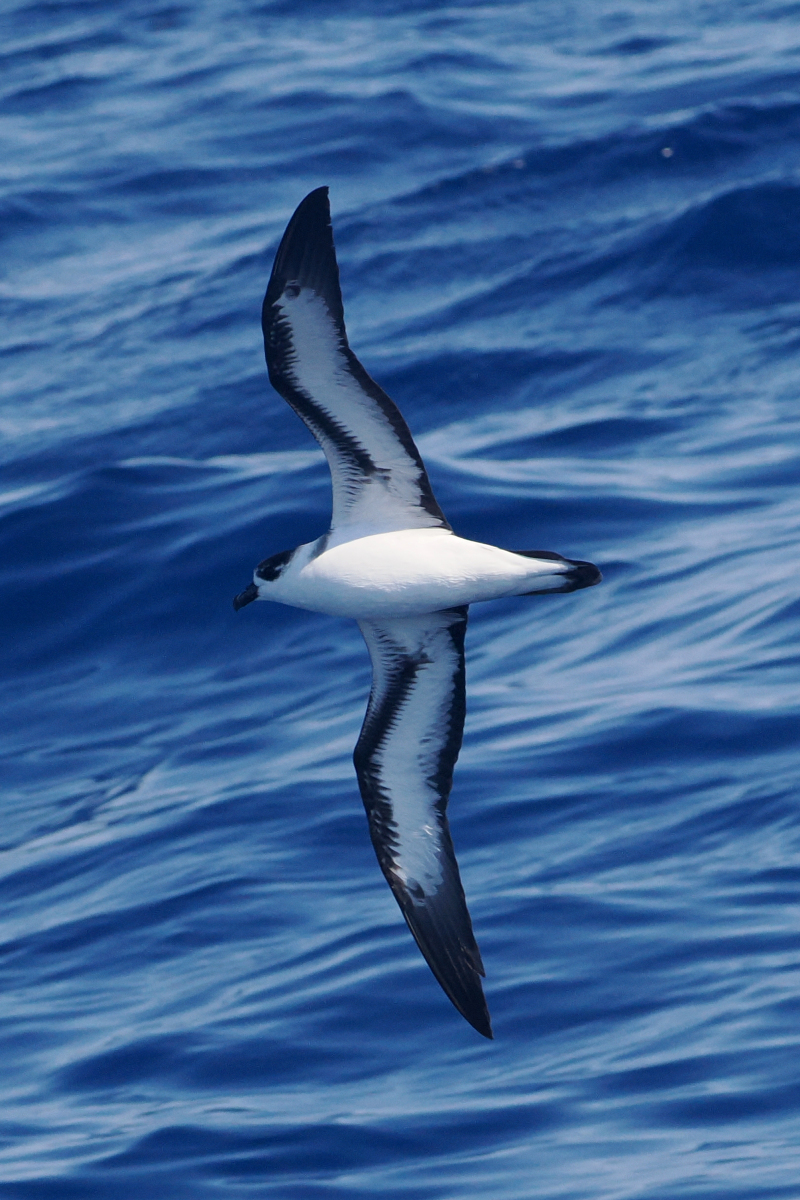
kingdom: Animalia
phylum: Chordata
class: Aves
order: Procellariiformes
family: Procellariidae
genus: Pterodroma
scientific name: Pterodroma hasitata
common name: Black-capped petrel
